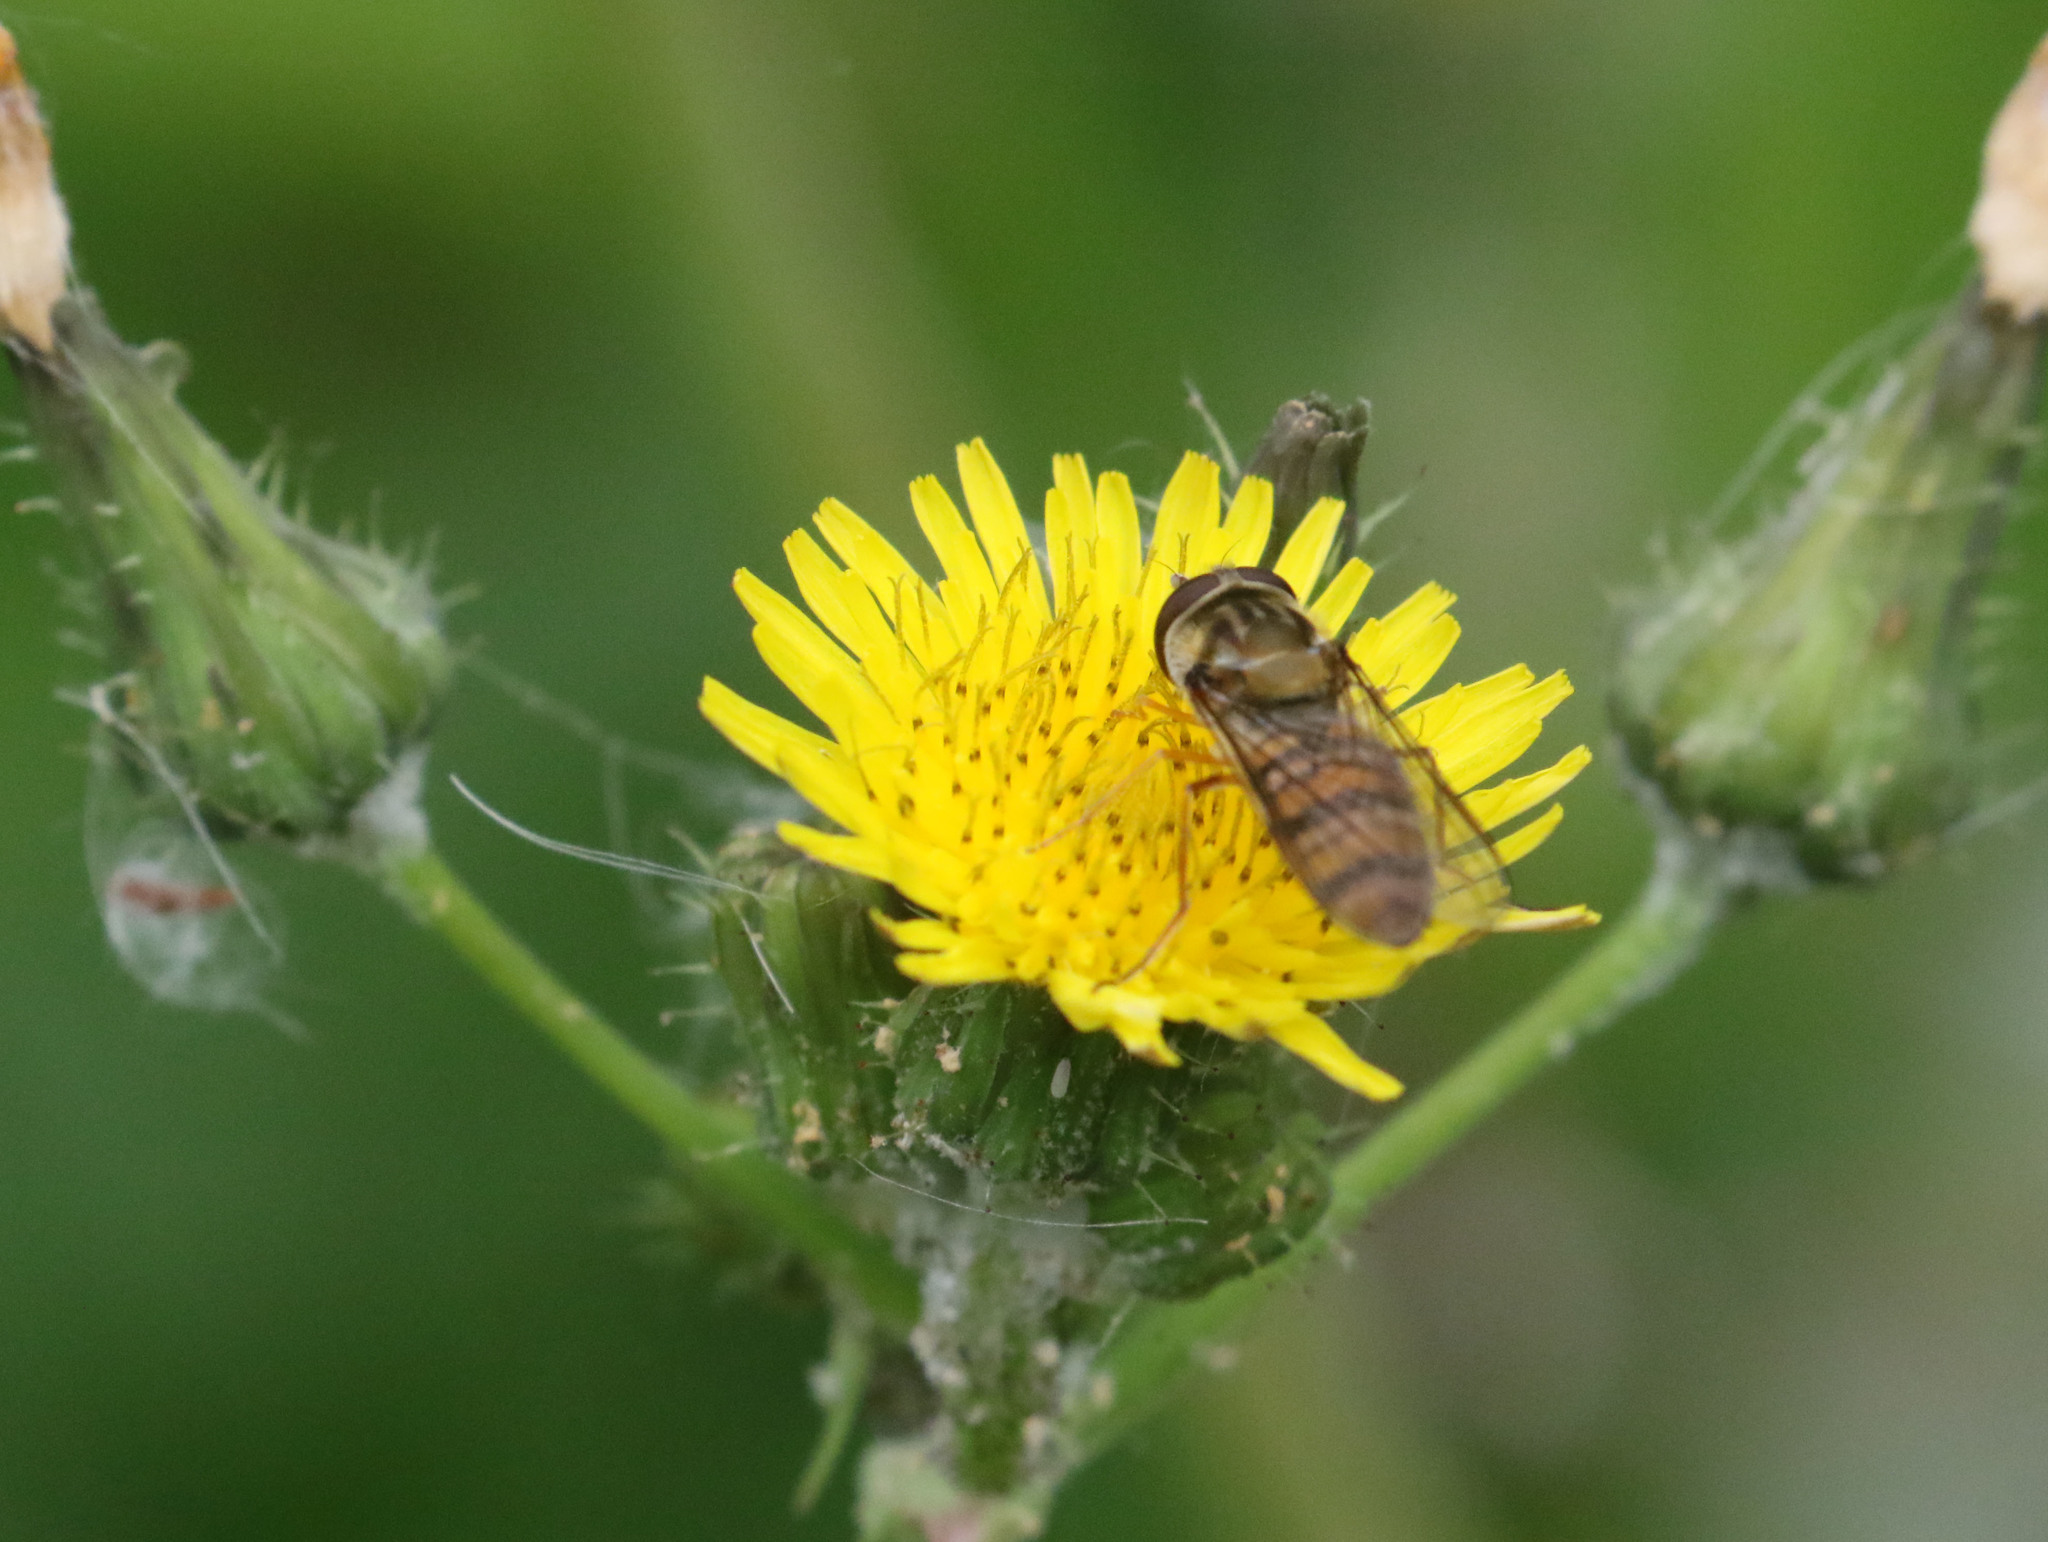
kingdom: Animalia
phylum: Arthropoda
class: Insecta
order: Diptera
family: Syrphidae
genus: Episyrphus
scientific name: Episyrphus balteatus
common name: Marmalade hoverfly
